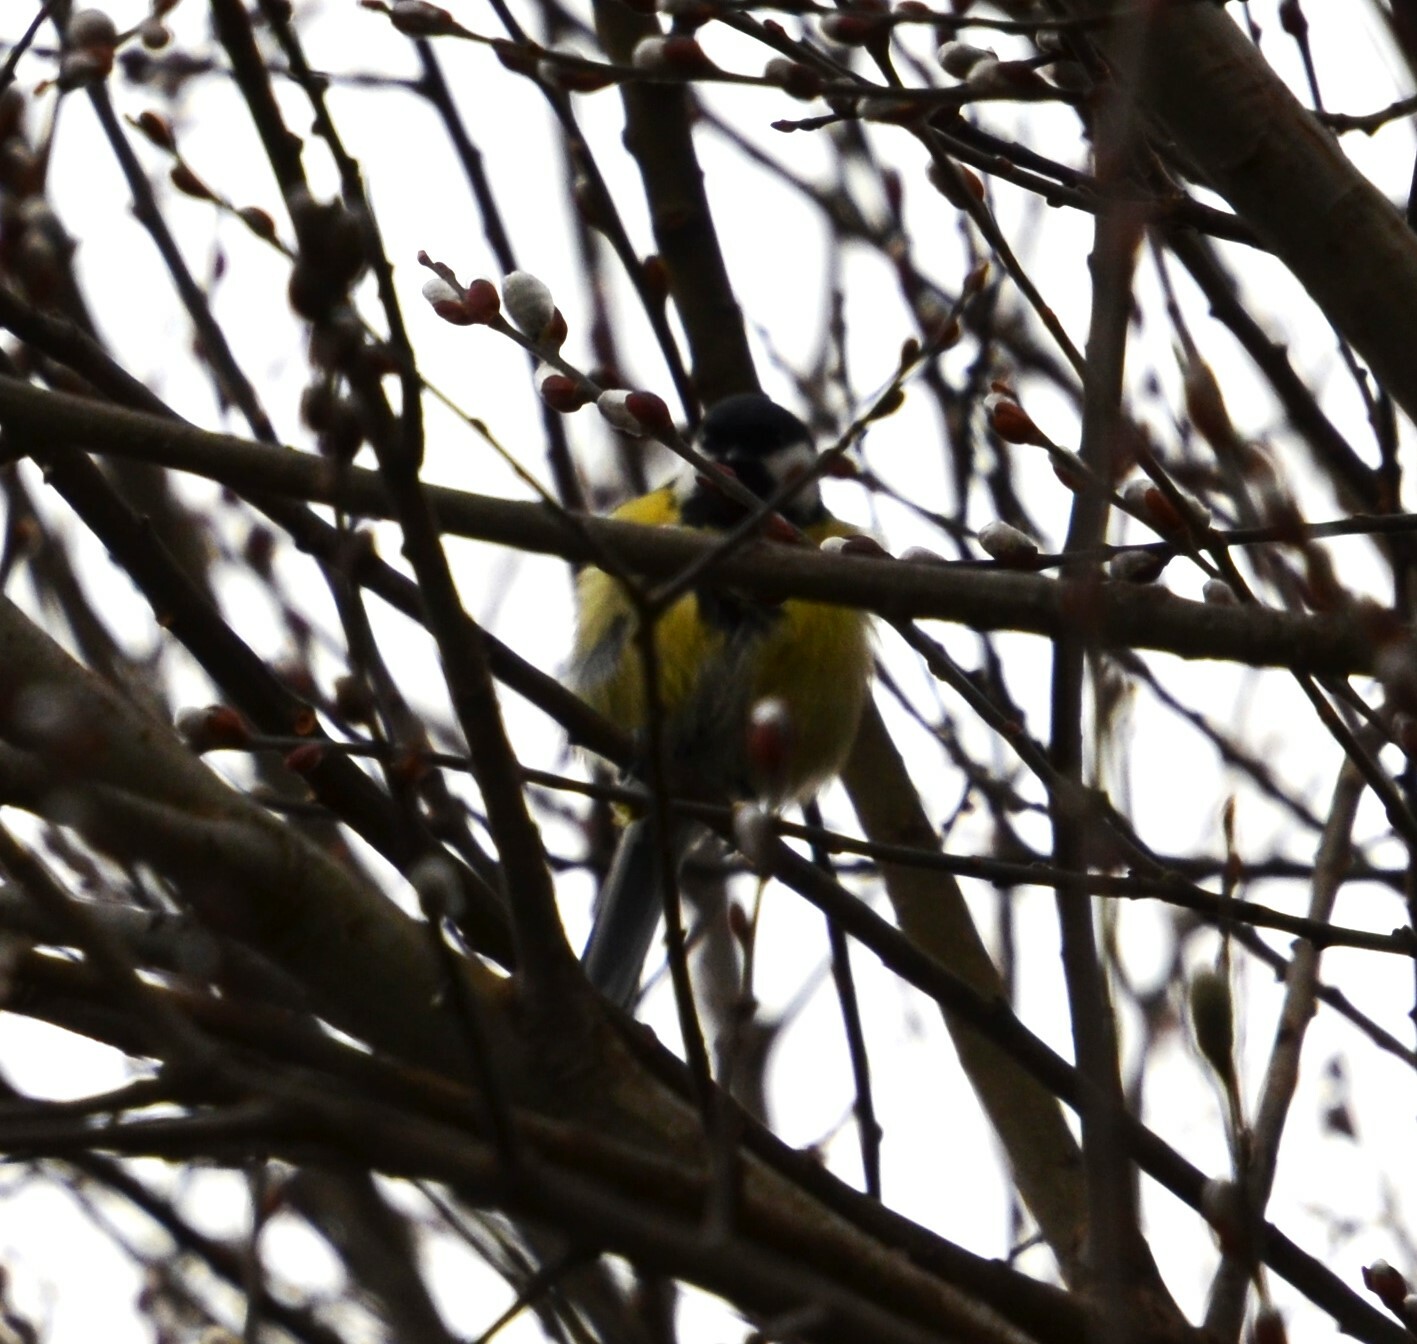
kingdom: Animalia
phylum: Chordata
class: Aves
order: Passeriformes
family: Paridae
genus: Parus
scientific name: Parus major
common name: Great tit
